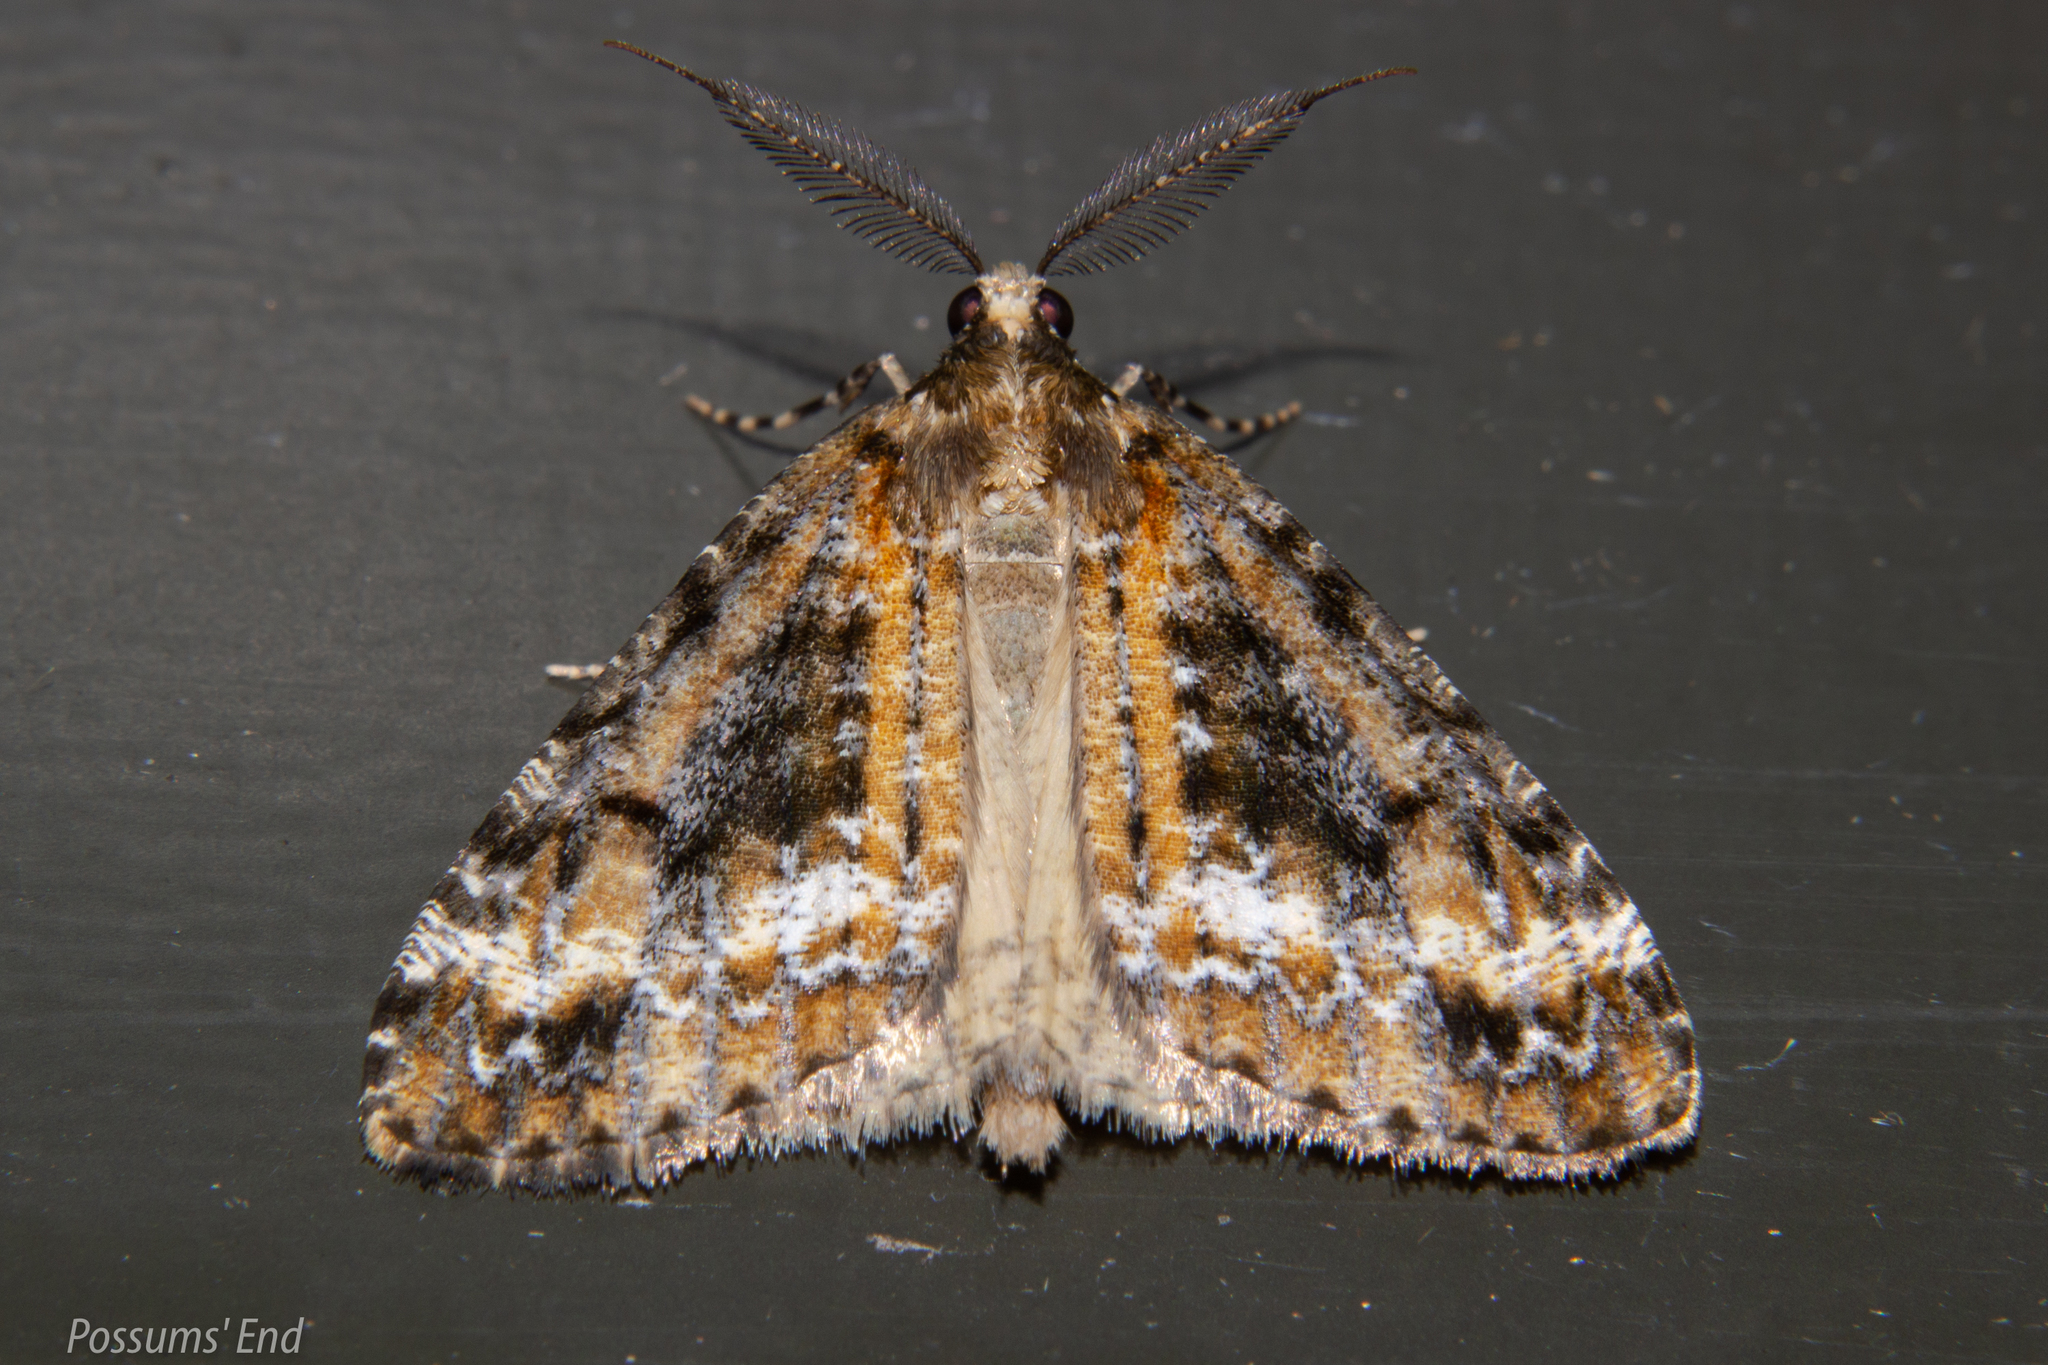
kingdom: Animalia
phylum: Arthropoda
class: Insecta
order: Lepidoptera
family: Geometridae
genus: Pseudocoremia
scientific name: Pseudocoremia leucelaea
